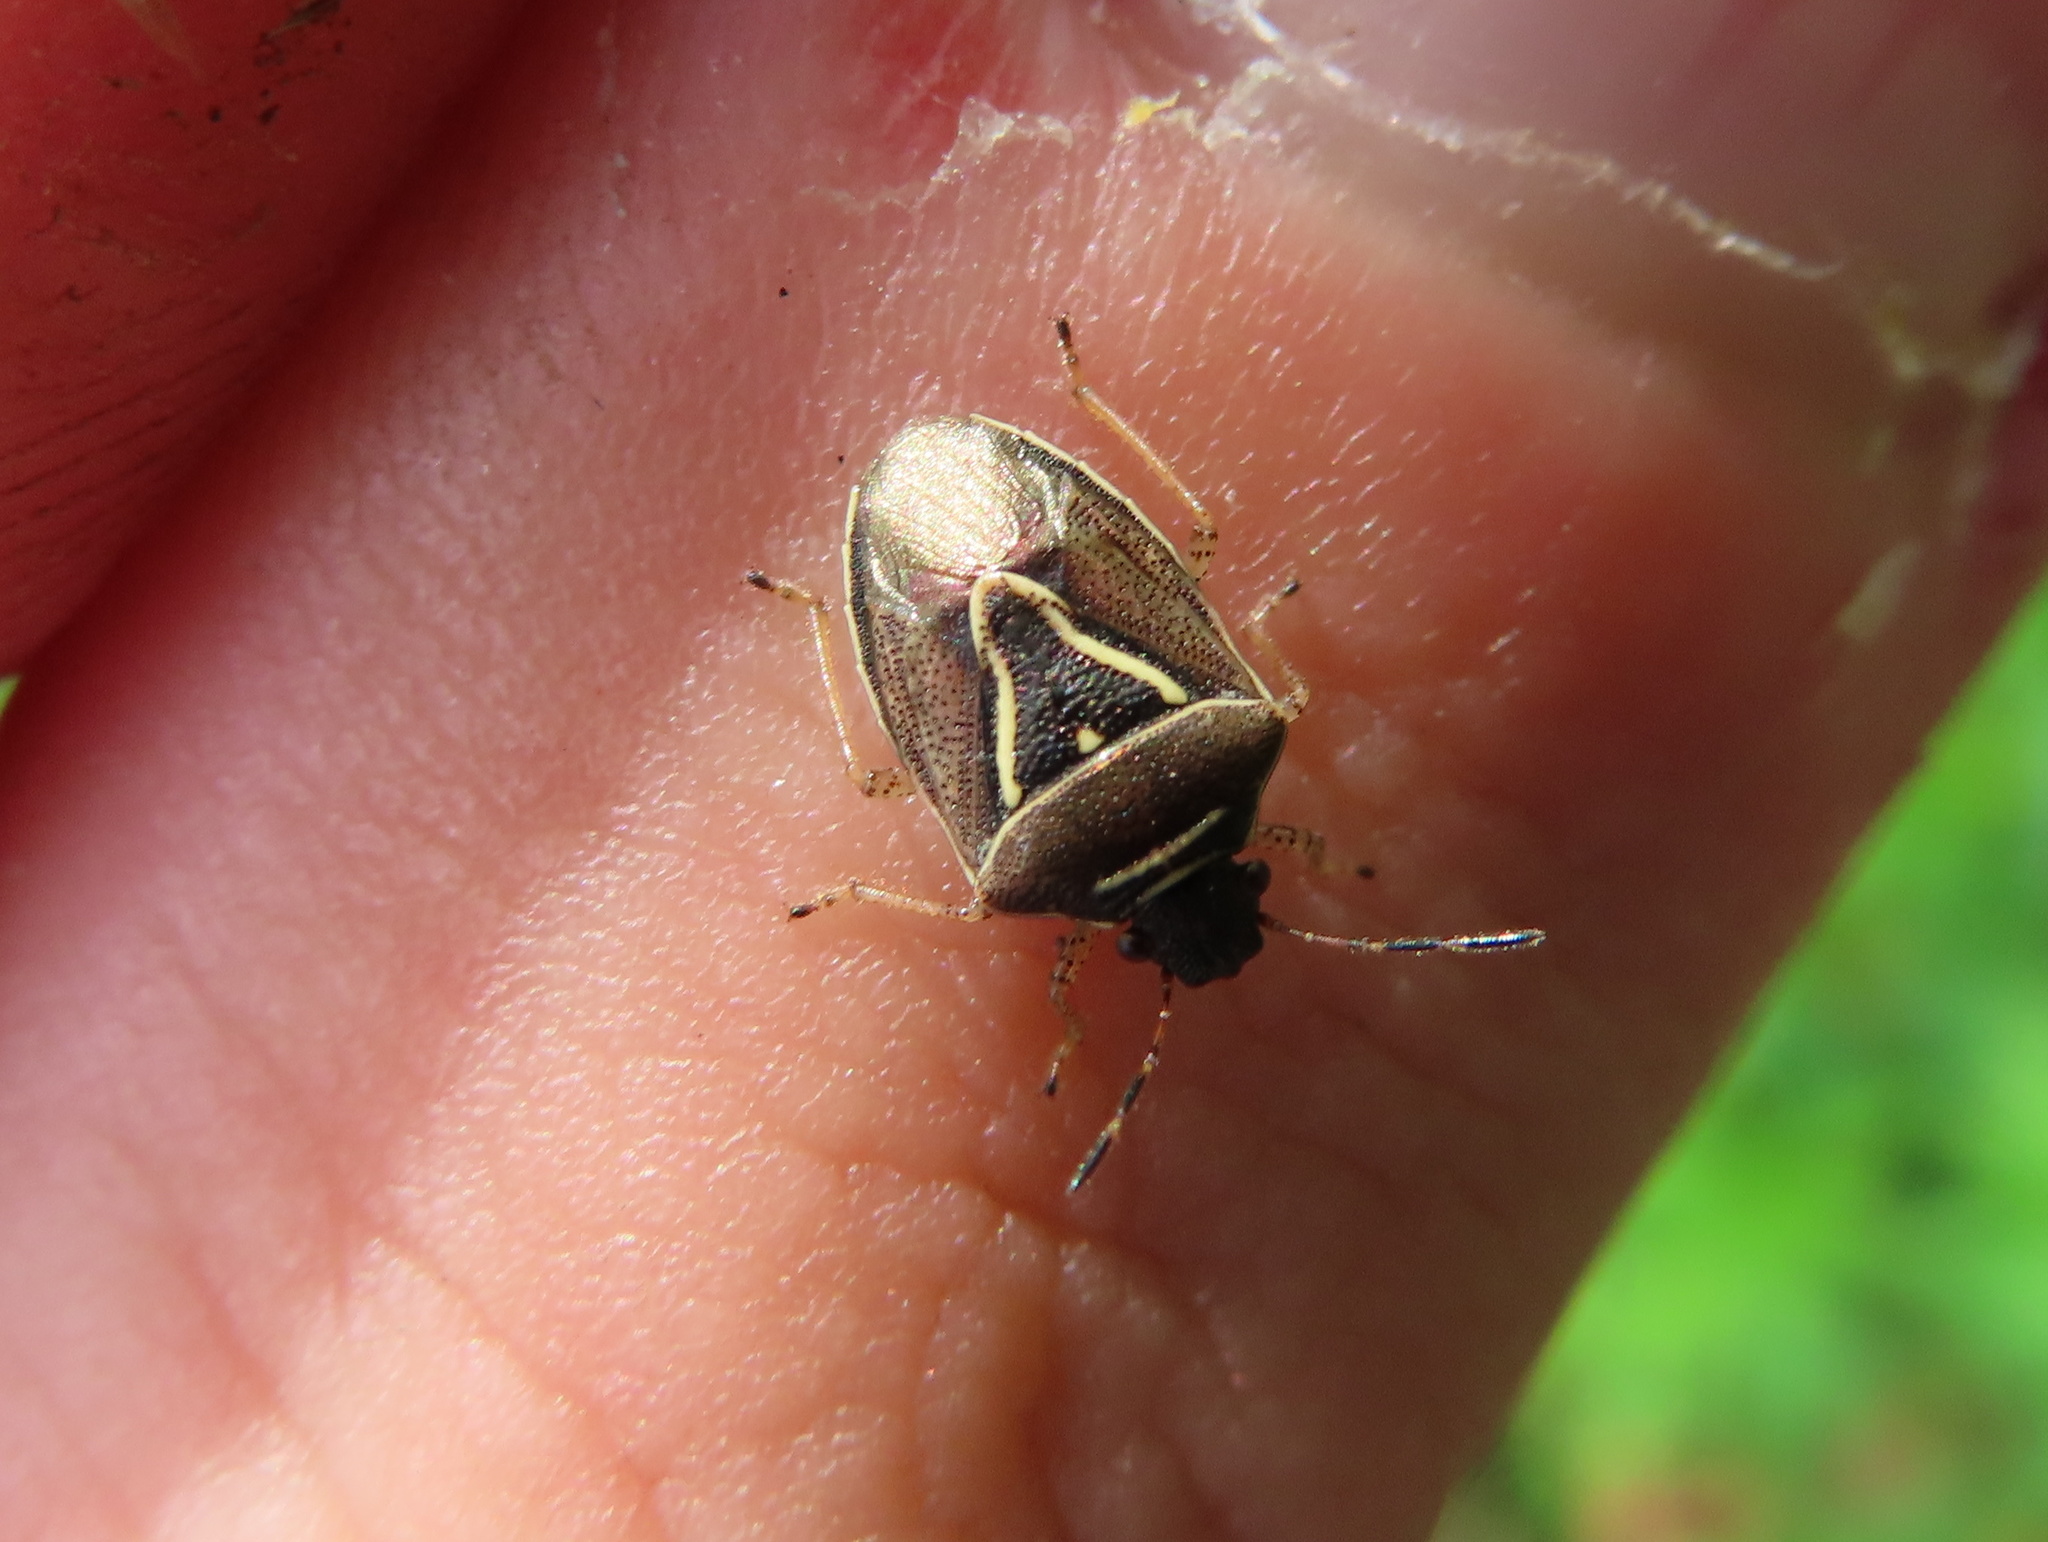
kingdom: Animalia
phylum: Arthropoda
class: Insecta
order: Hemiptera
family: Pentatomidae
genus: Mormidea
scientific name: Mormidea lugens
